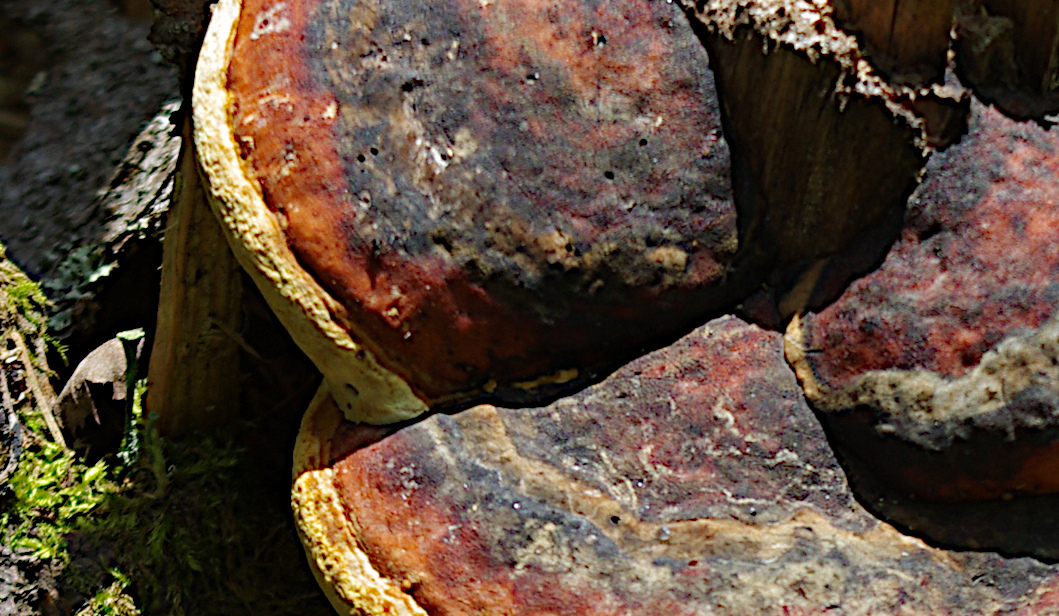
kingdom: Fungi
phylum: Basidiomycota
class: Agaricomycetes
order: Polyporales
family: Fomitopsidaceae
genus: Fomitopsis
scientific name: Fomitopsis pinicola
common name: Red-belted bracket
